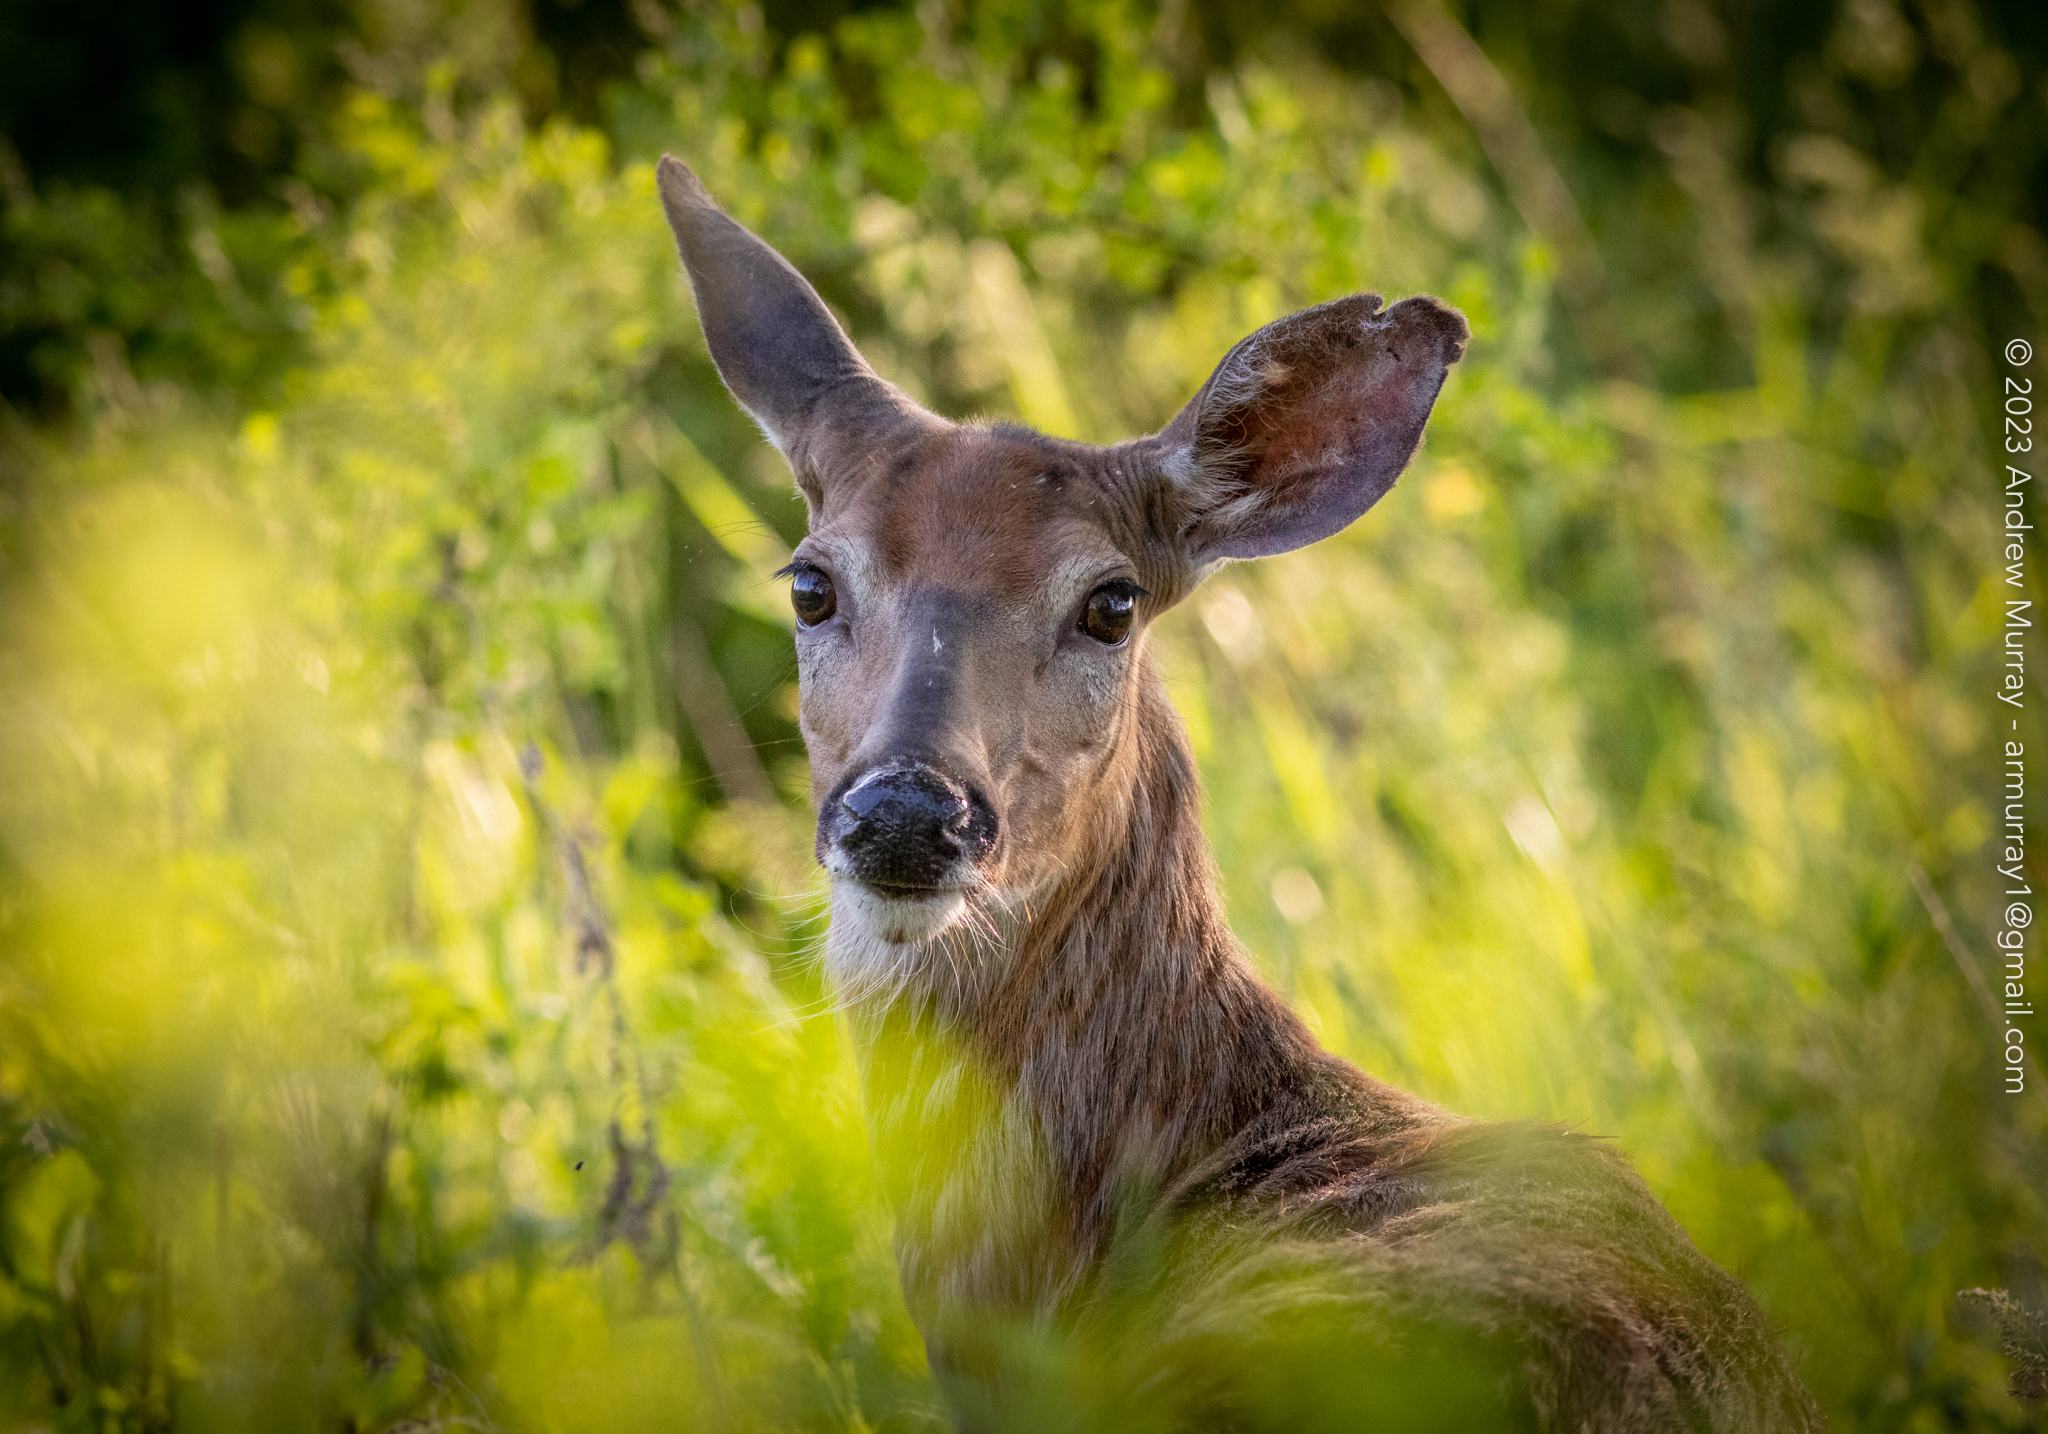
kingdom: Animalia
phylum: Chordata
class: Mammalia
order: Artiodactyla
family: Cervidae
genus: Odocoileus
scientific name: Odocoileus virginianus
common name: White-tailed deer
